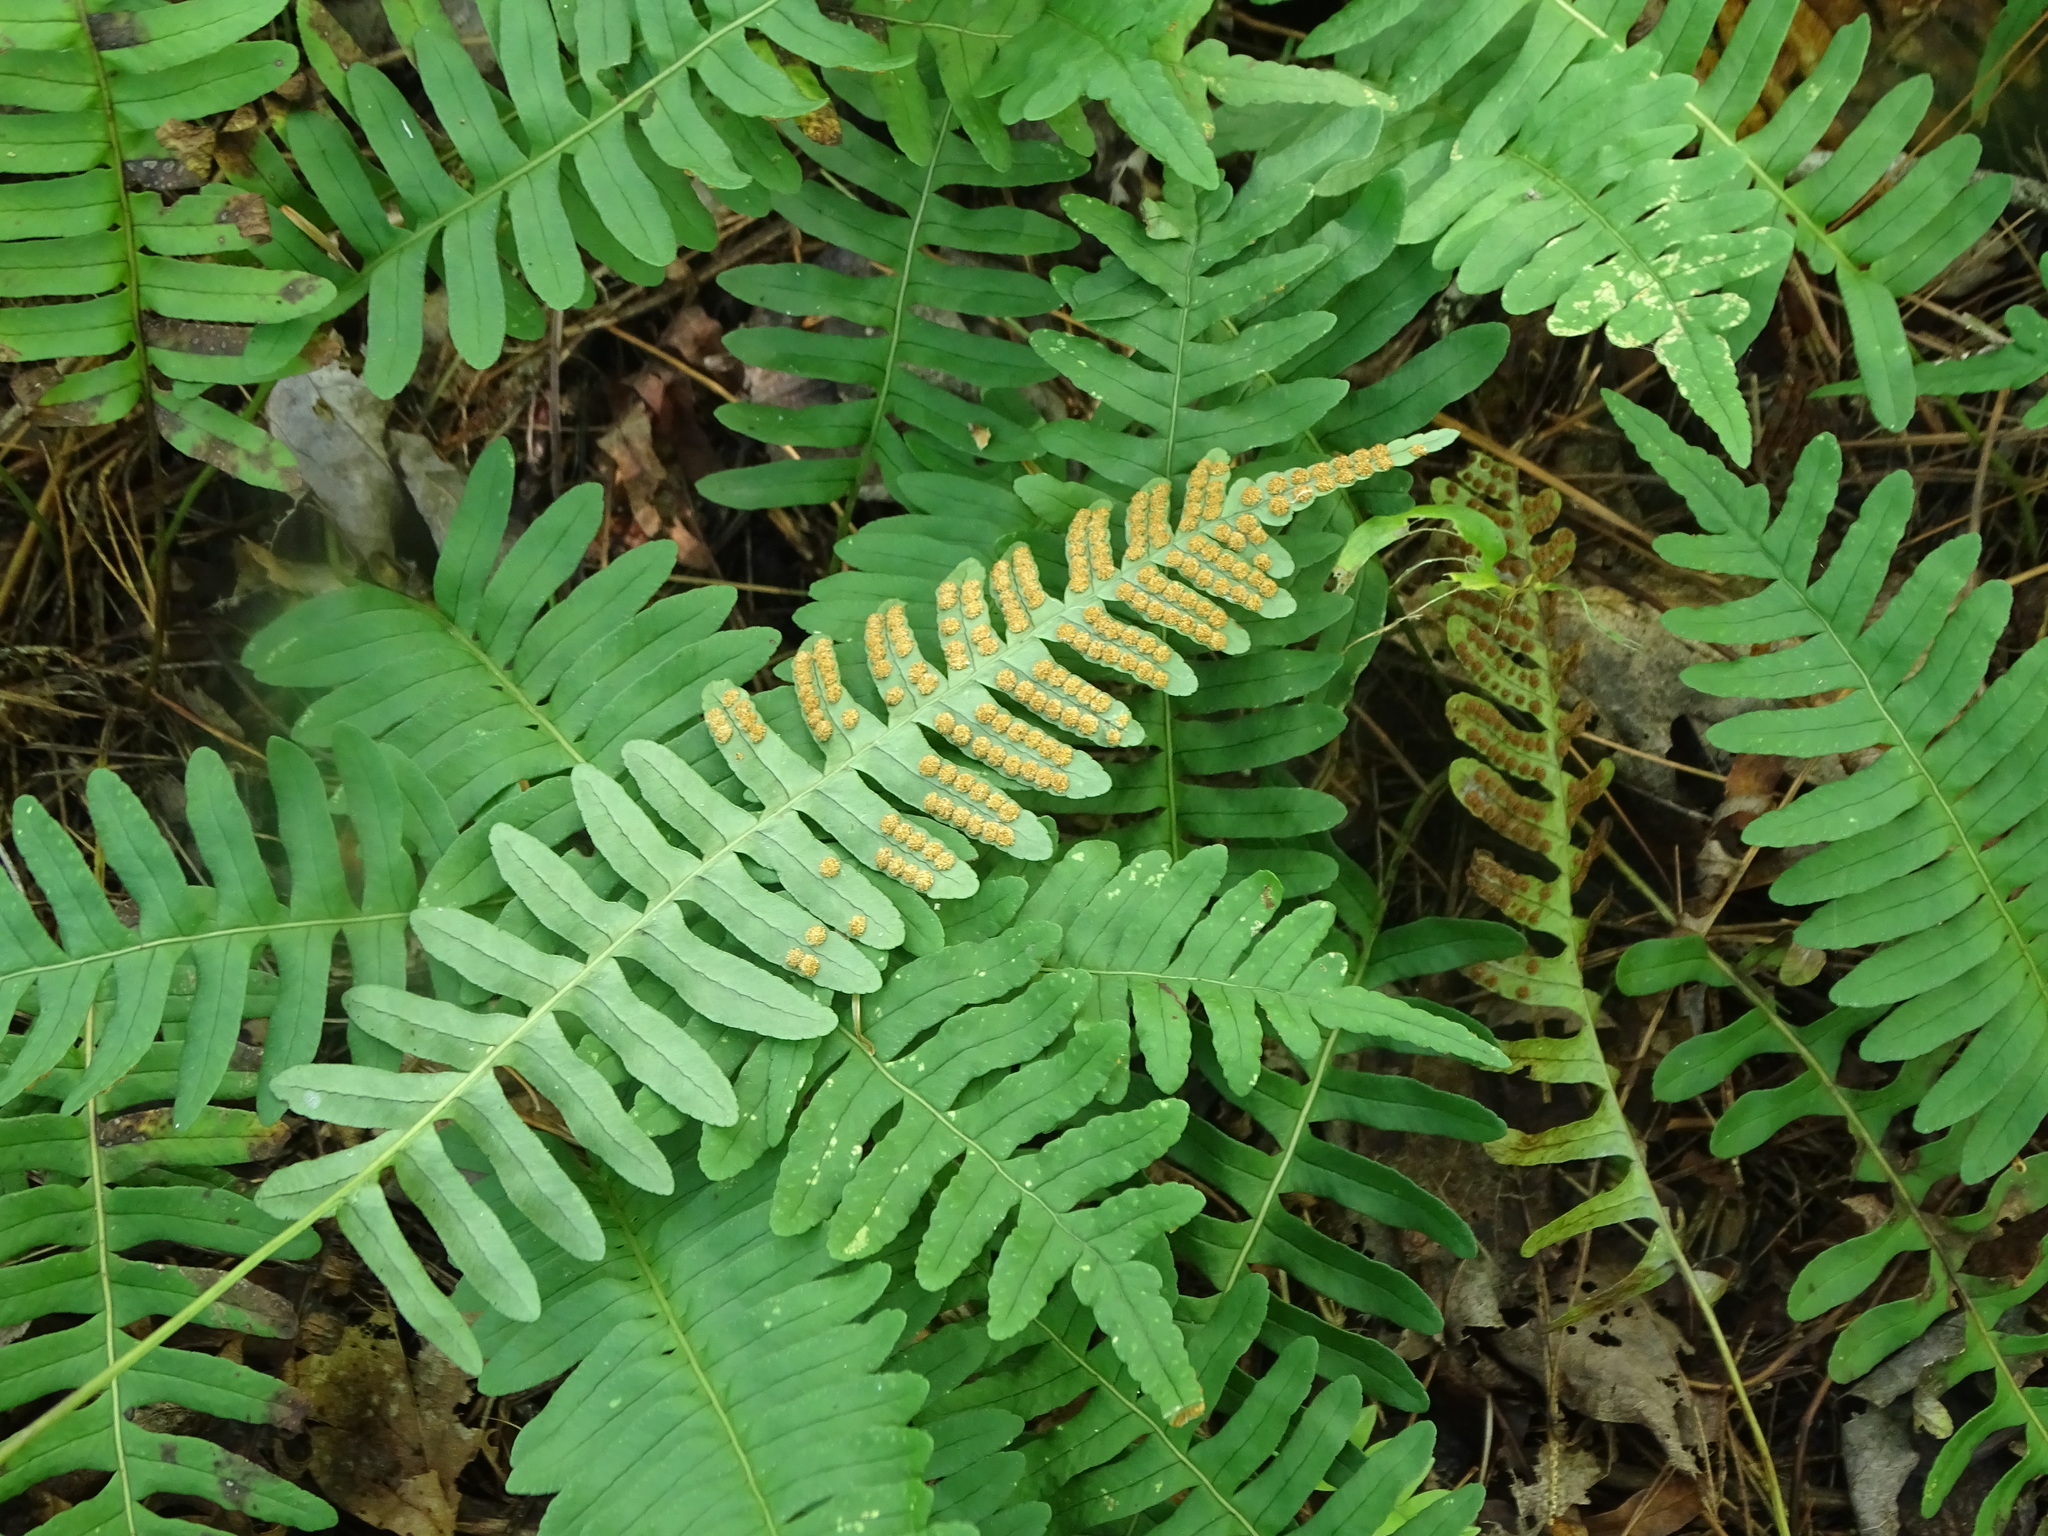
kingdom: Plantae
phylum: Tracheophyta
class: Polypodiopsida
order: Polypodiales
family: Polypodiaceae
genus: Polypodium
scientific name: Polypodium virginianum
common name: American wall fern
